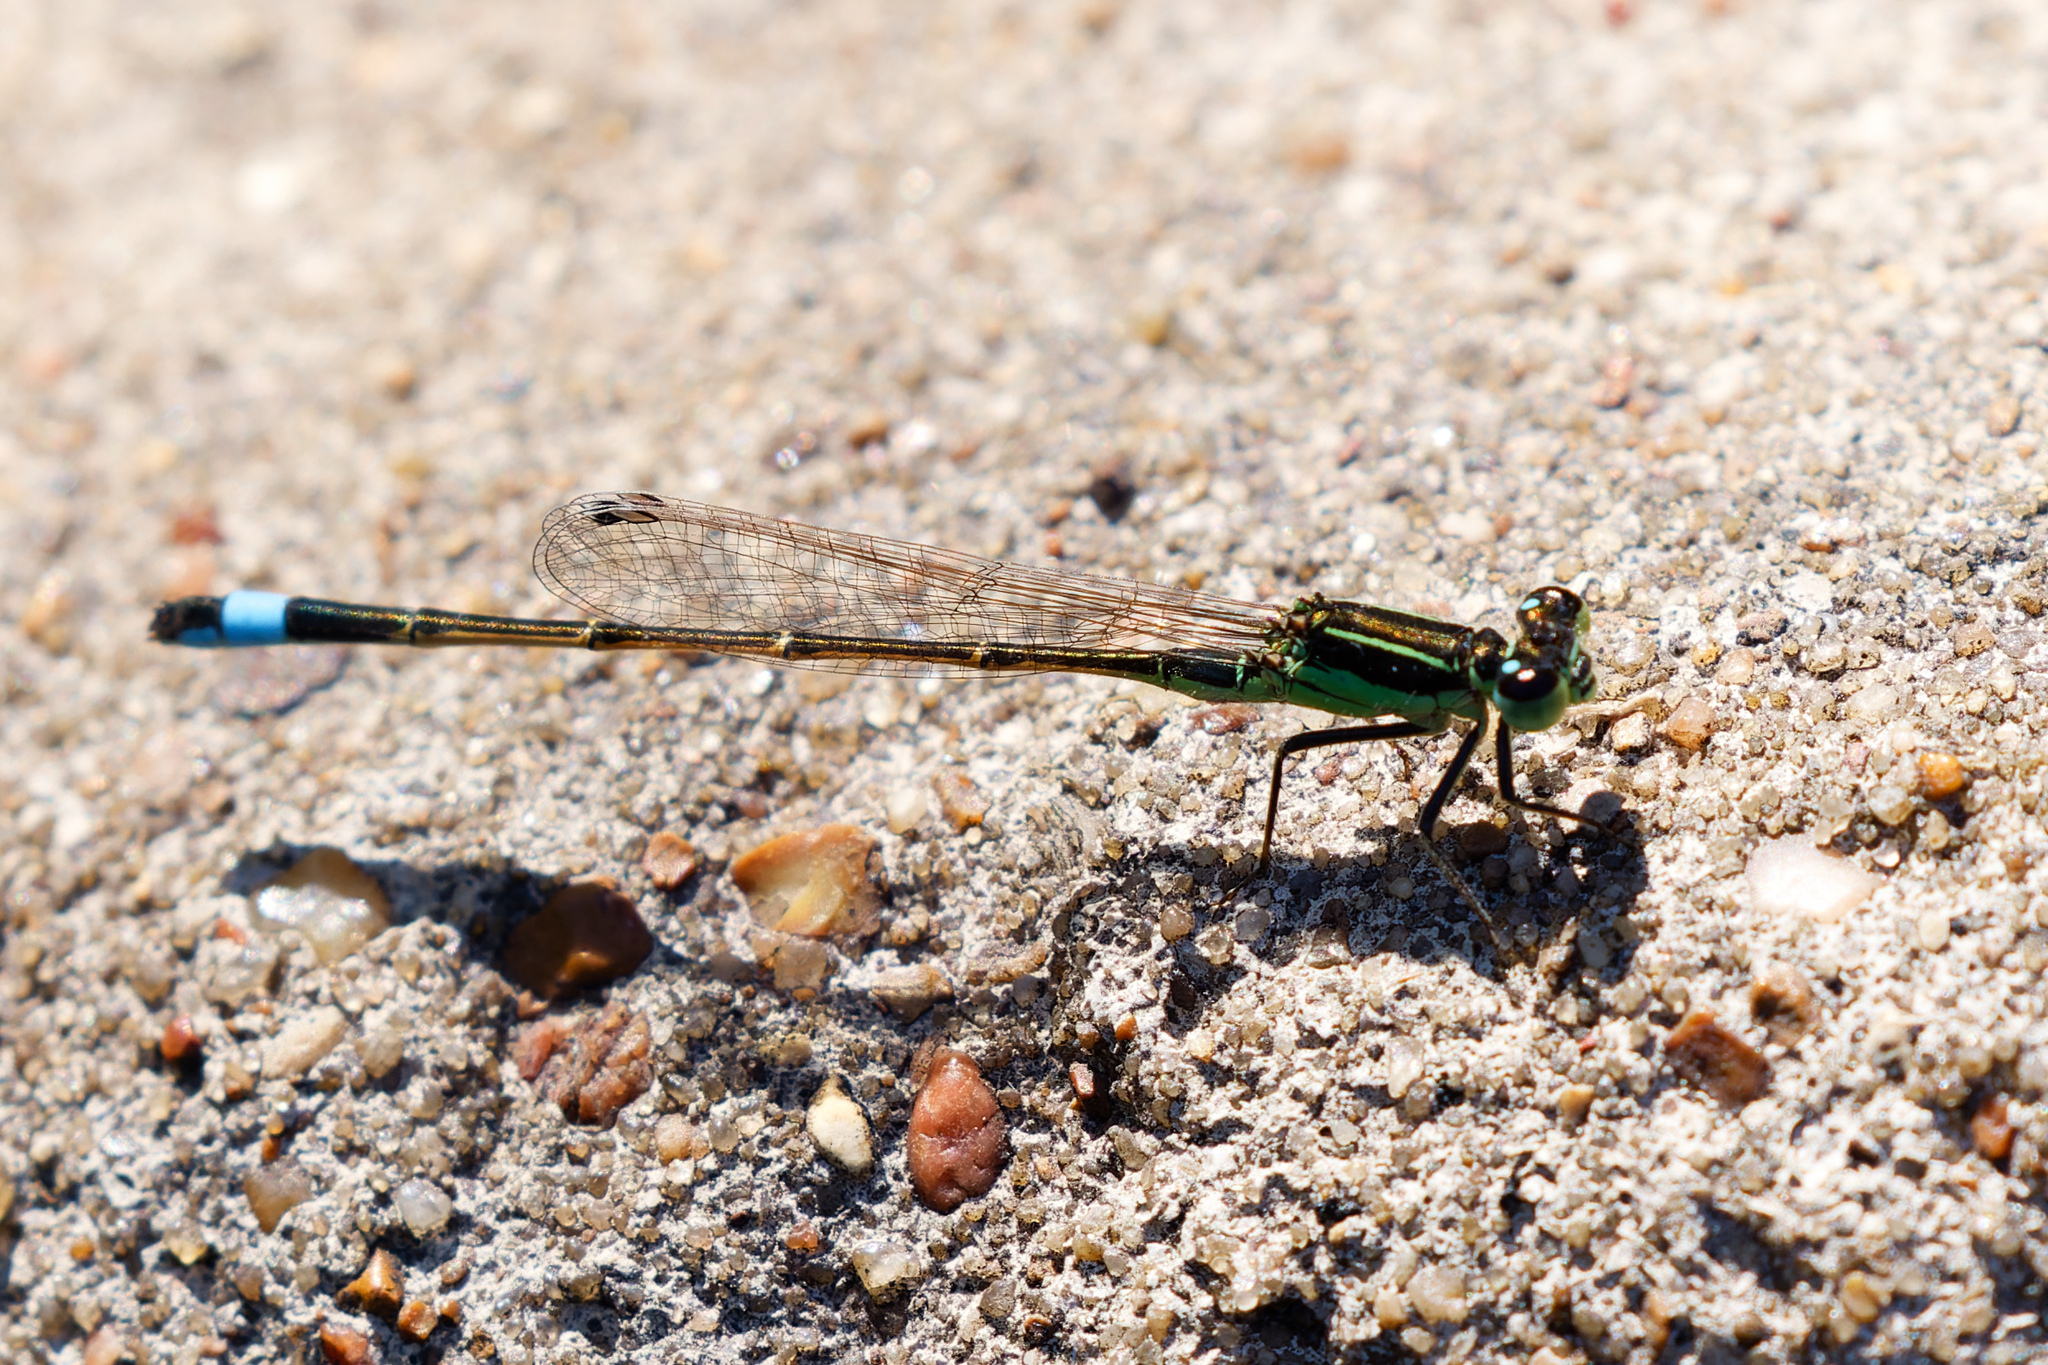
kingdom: Animalia
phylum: Arthropoda
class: Insecta
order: Odonata
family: Coenagrionidae
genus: Ischnura
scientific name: Ischnura ramburii
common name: Rambur's forktail
